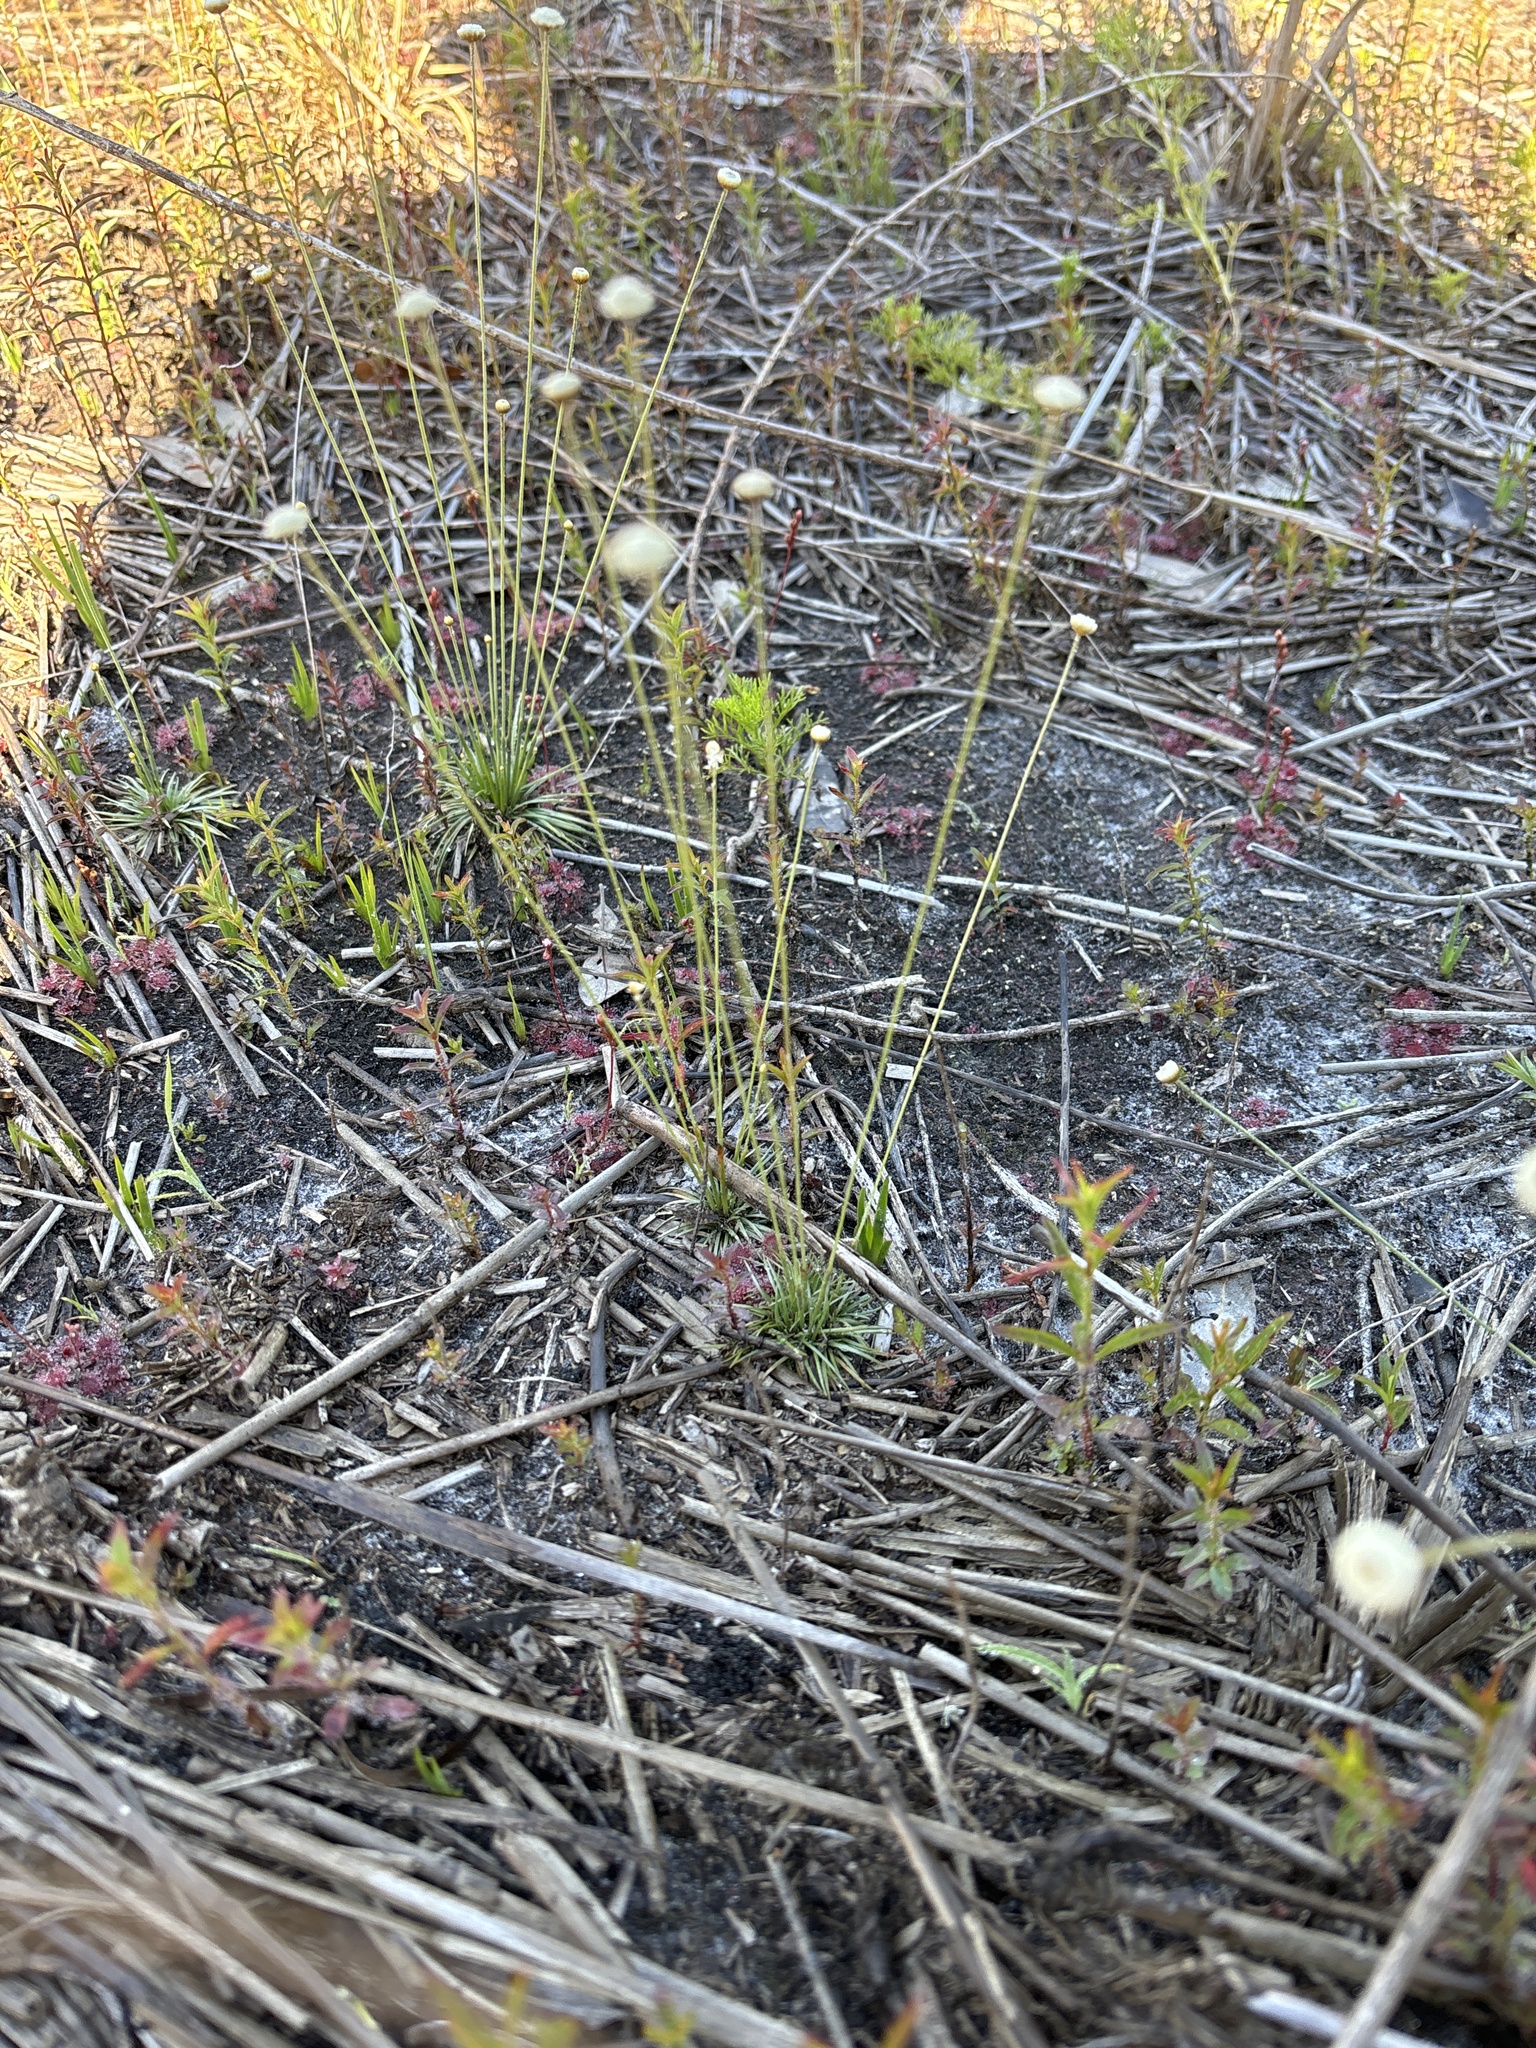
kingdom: Plantae
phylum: Tracheophyta
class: Liliopsida
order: Poales
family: Eriocaulaceae
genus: Syngonanthus
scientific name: Syngonanthus flavidulus
